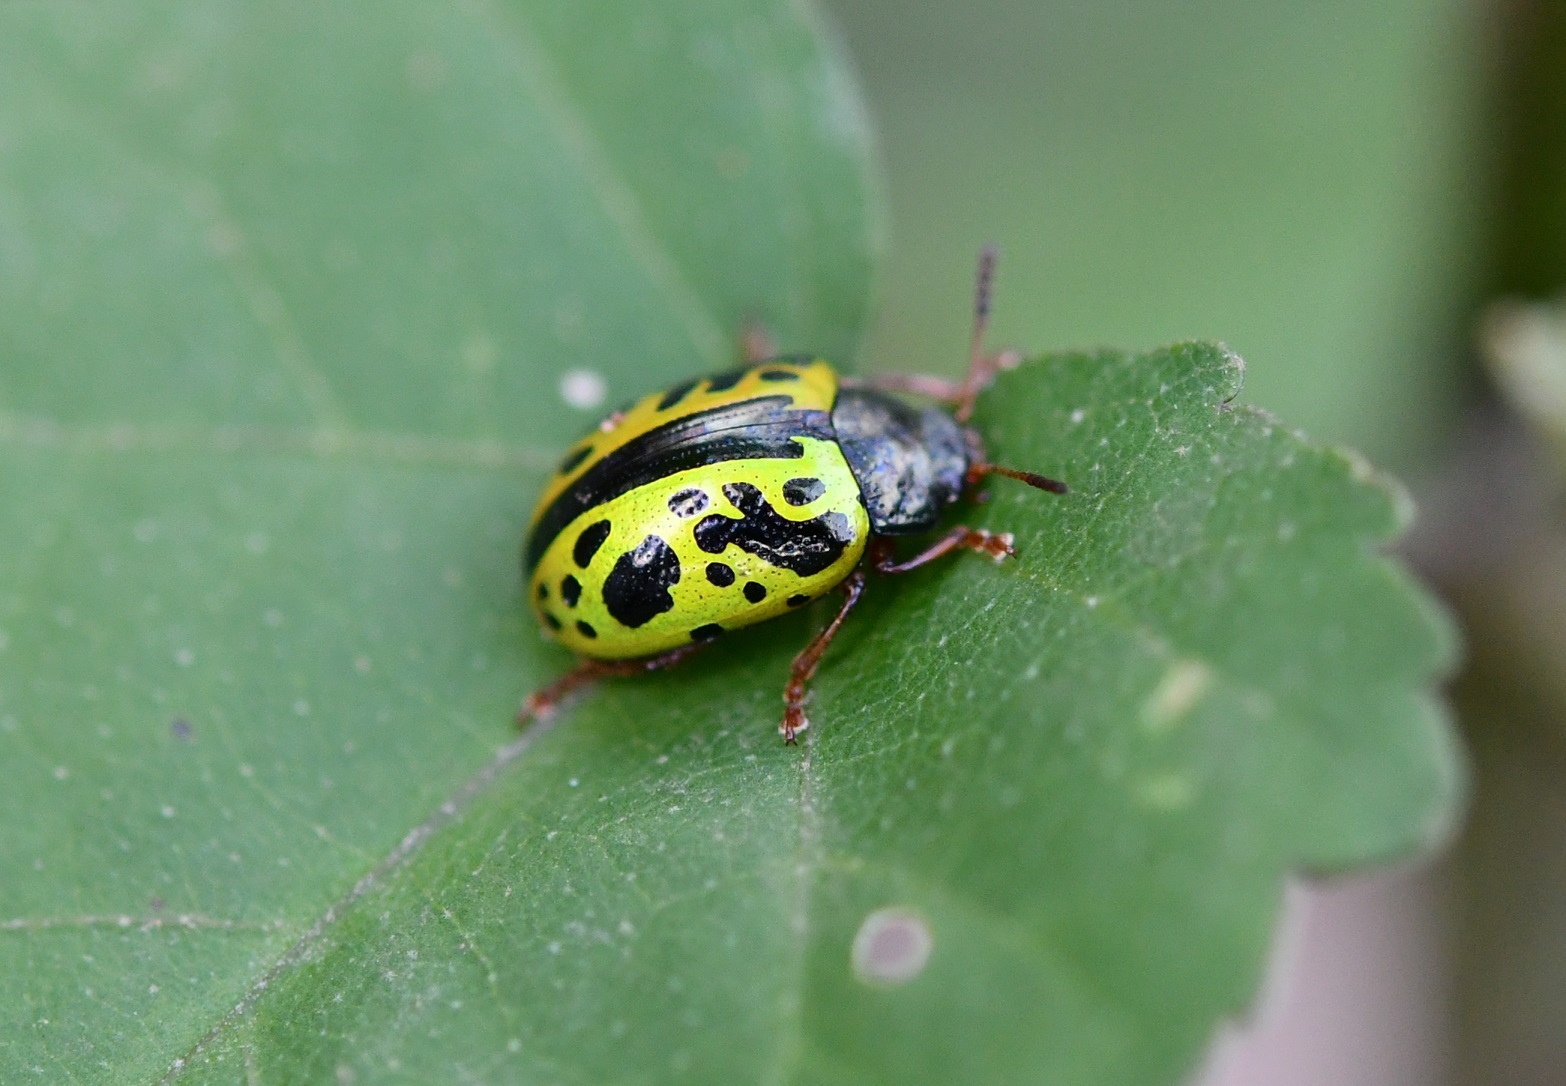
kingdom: Animalia
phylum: Arthropoda
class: Insecta
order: Coleoptera
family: Chrysomelidae
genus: Calligrapha
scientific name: Calligrapha fulvipes
